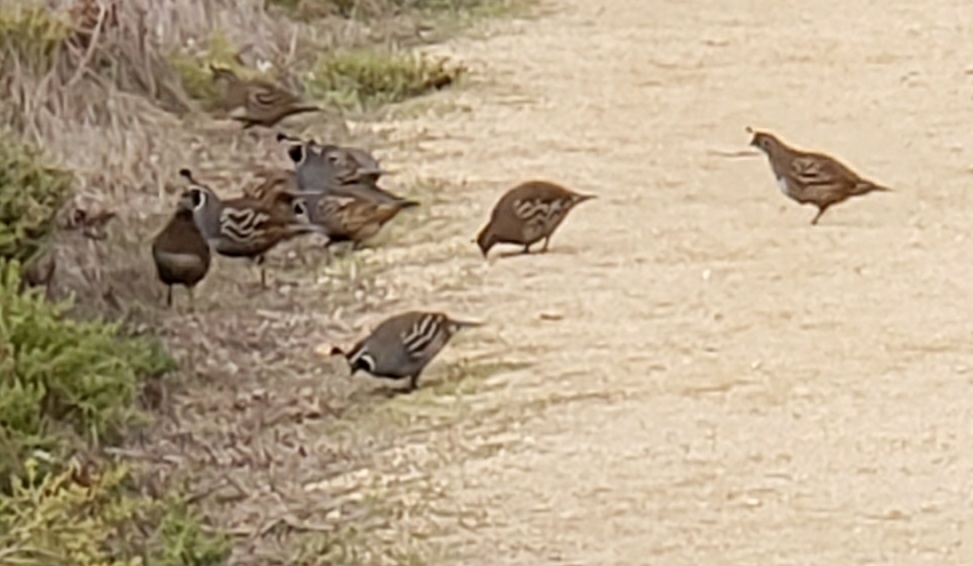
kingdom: Animalia
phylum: Chordata
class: Aves
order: Galliformes
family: Odontophoridae
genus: Callipepla
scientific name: Callipepla californica
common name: California quail
